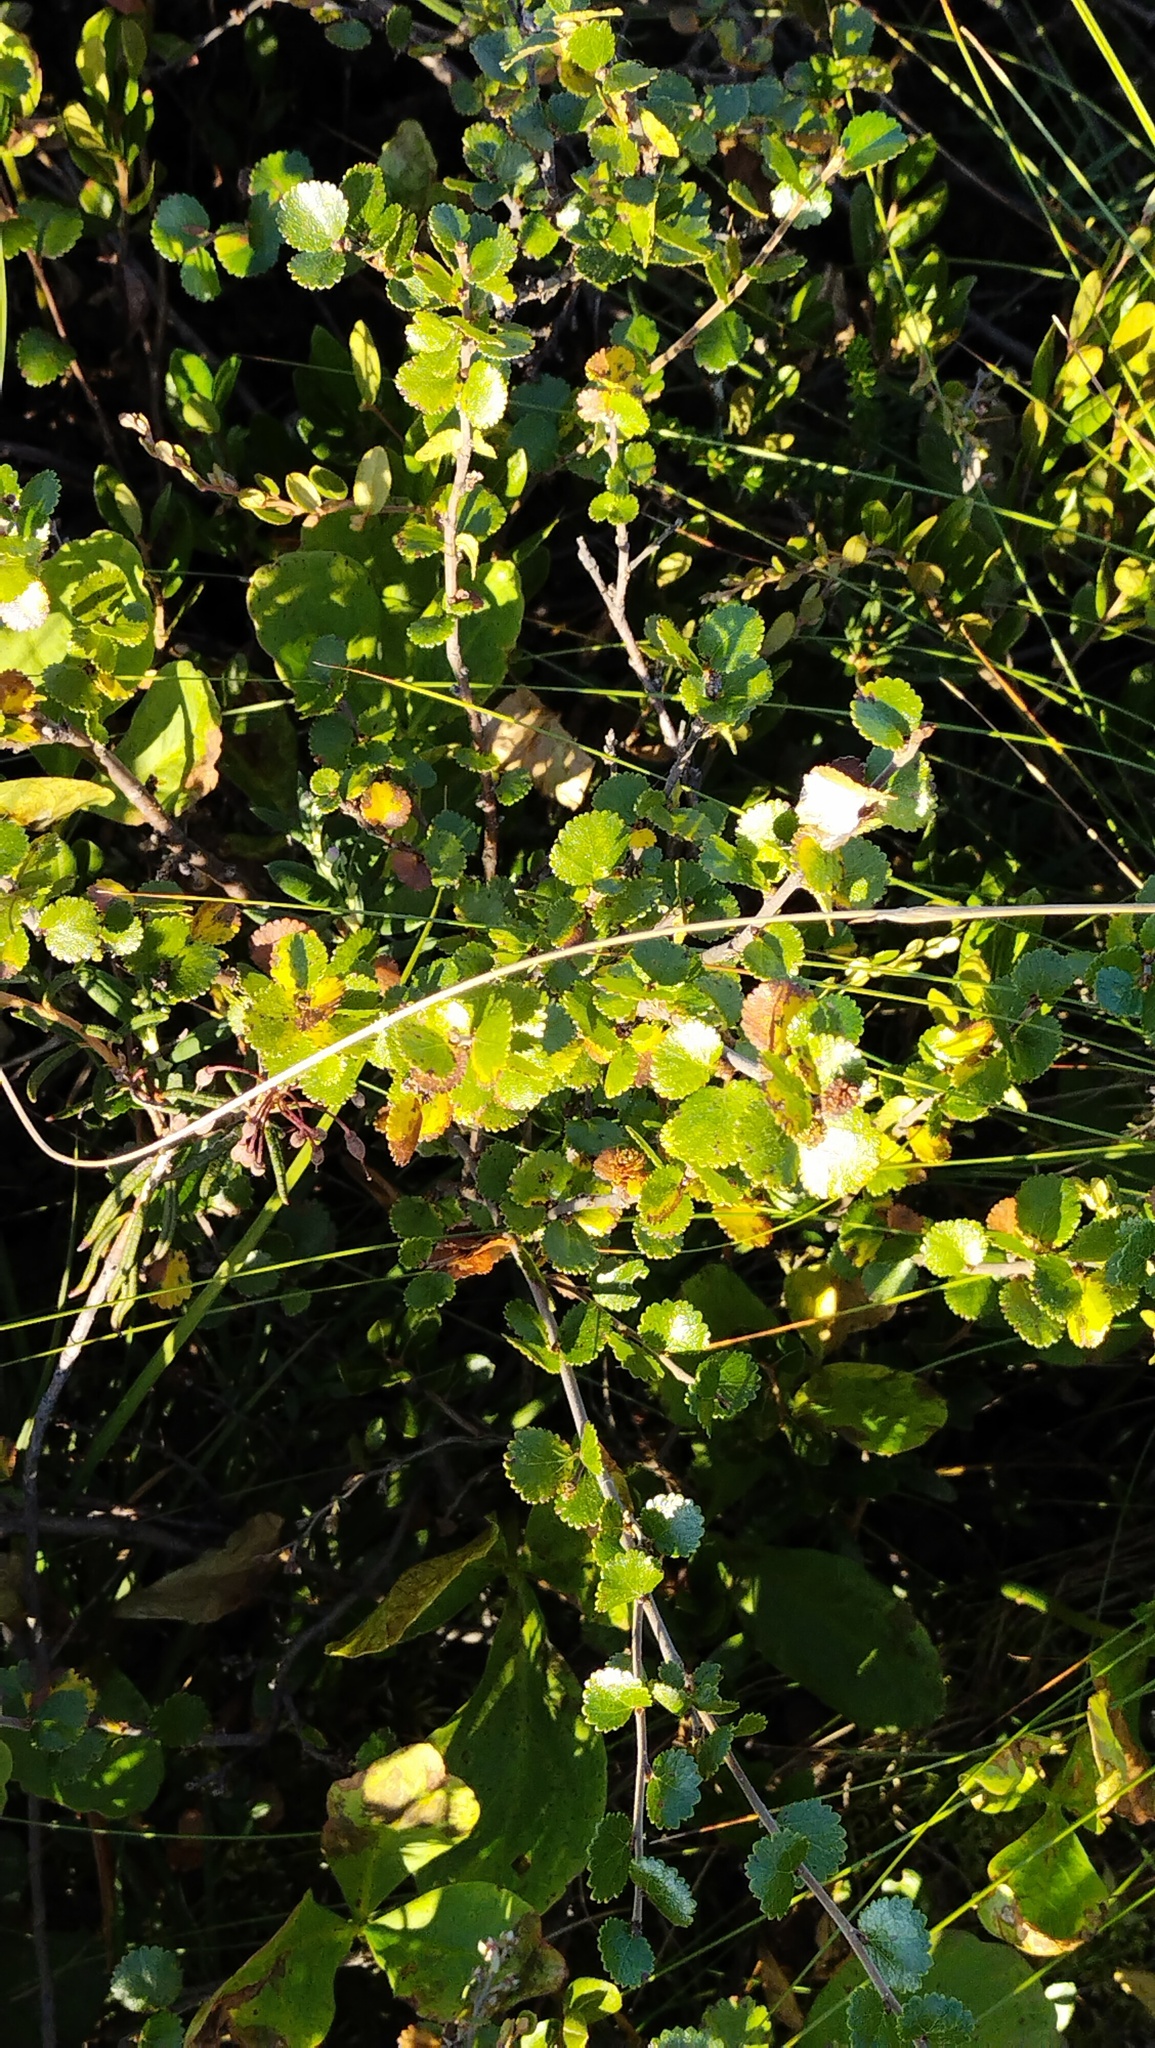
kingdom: Plantae
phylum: Tracheophyta
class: Magnoliopsida
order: Fagales
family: Betulaceae
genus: Betula
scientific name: Betula nana
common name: Arctic dwarf birch
